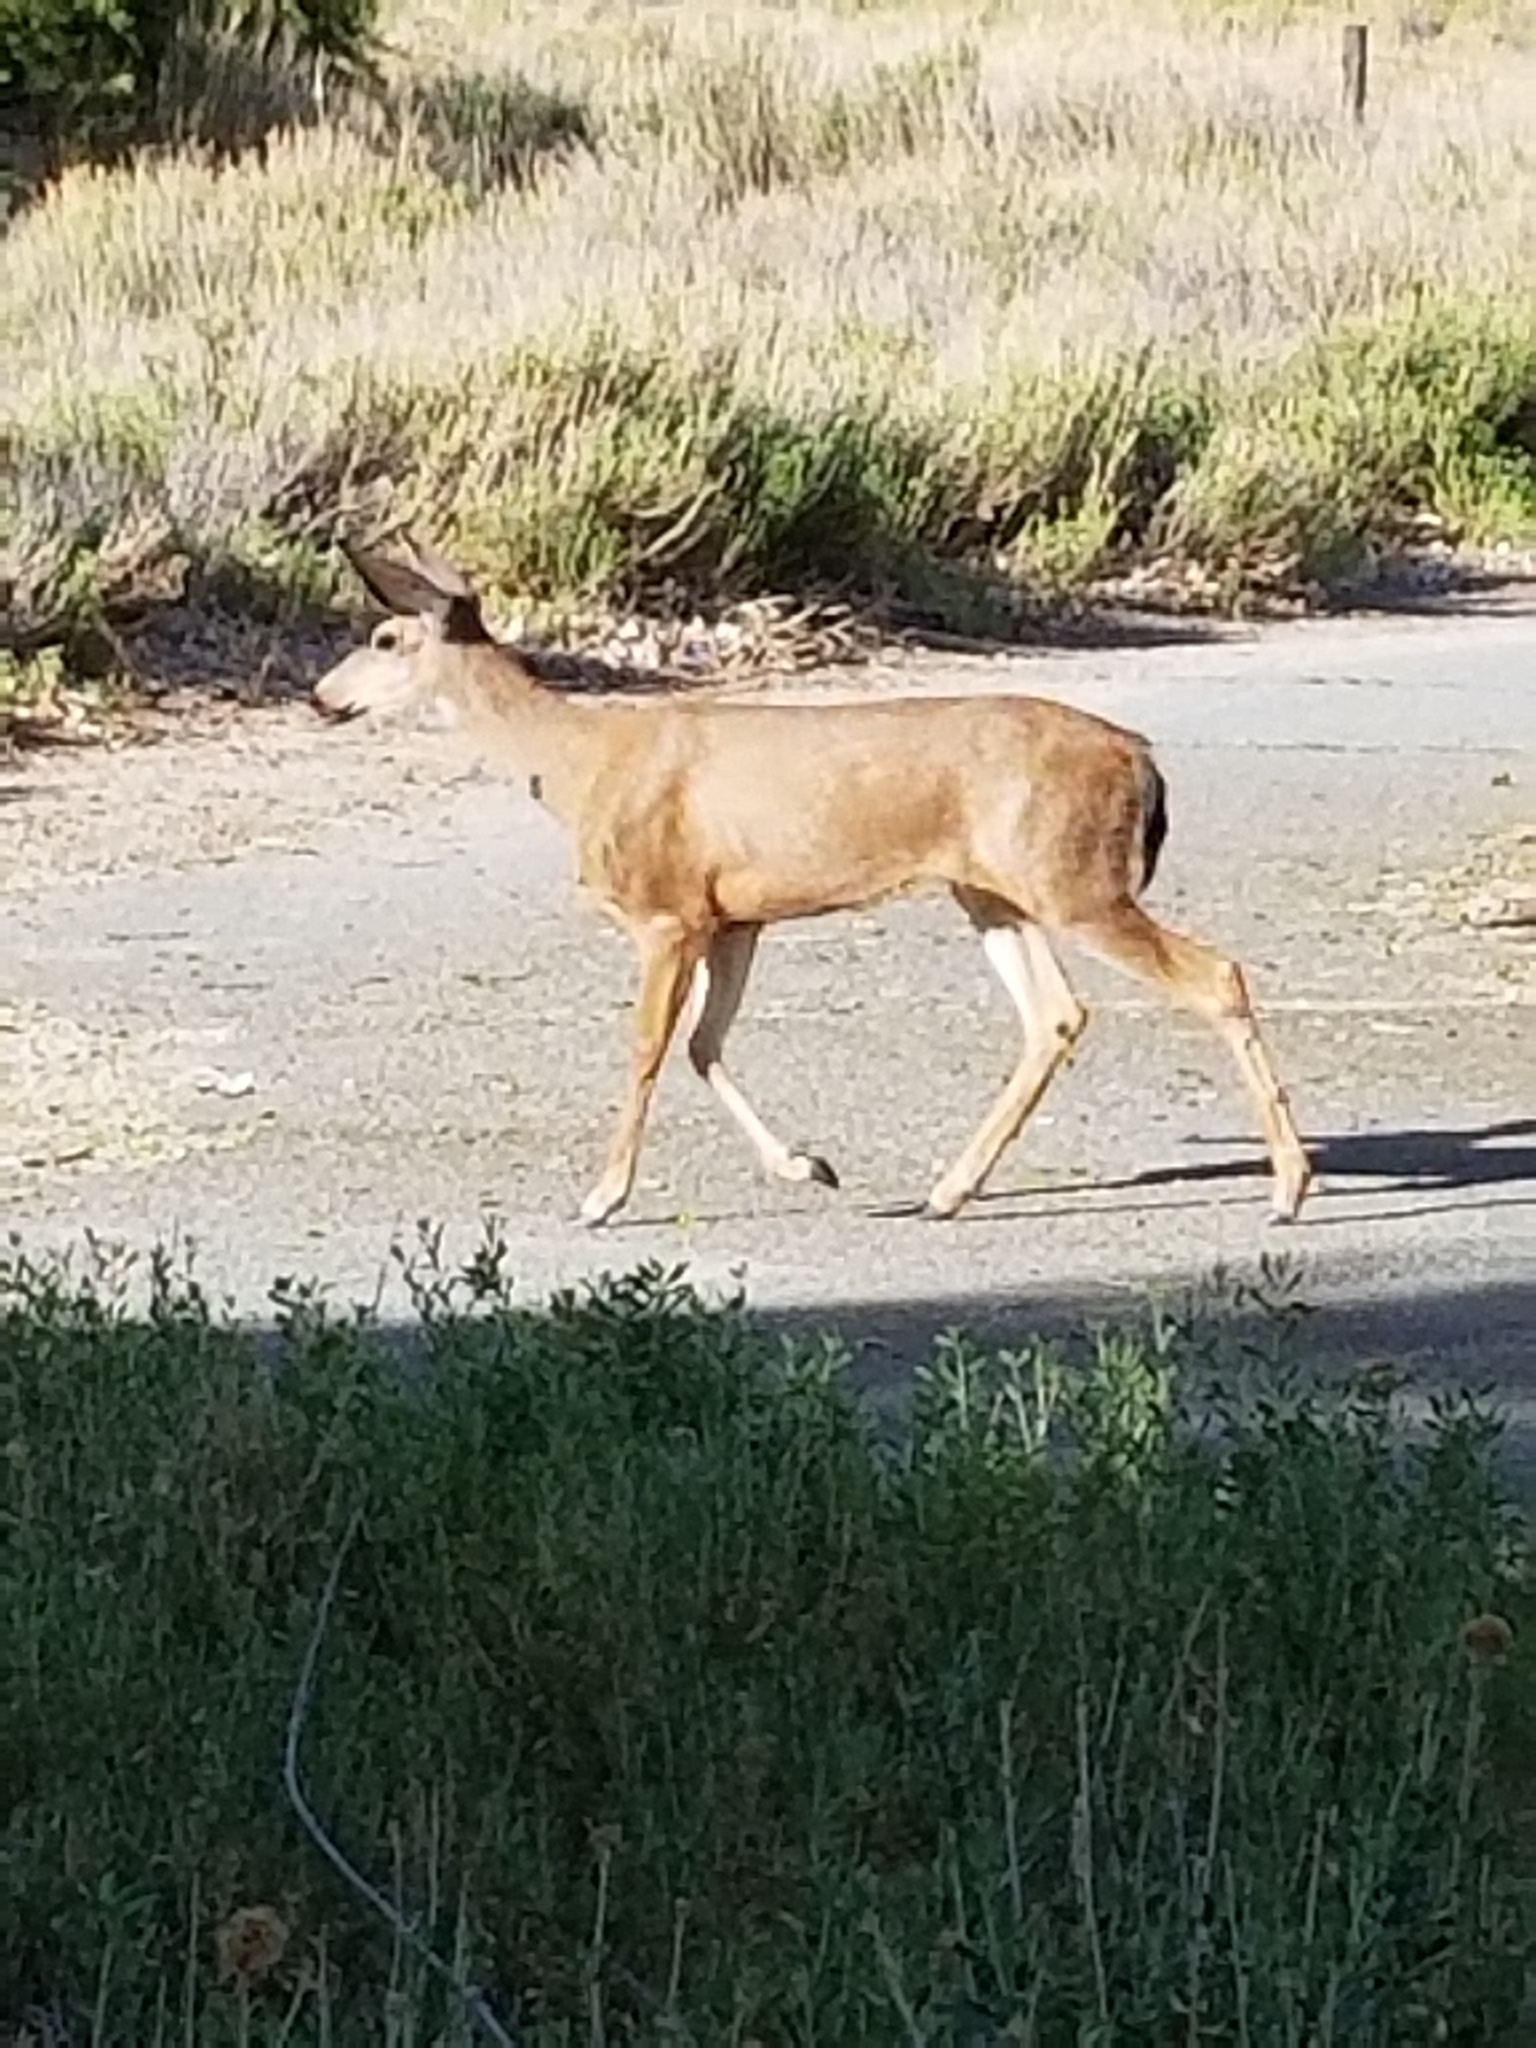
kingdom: Animalia
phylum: Chordata
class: Mammalia
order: Artiodactyla
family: Cervidae
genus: Odocoileus
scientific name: Odocoileus hemionus
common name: Mule deer
